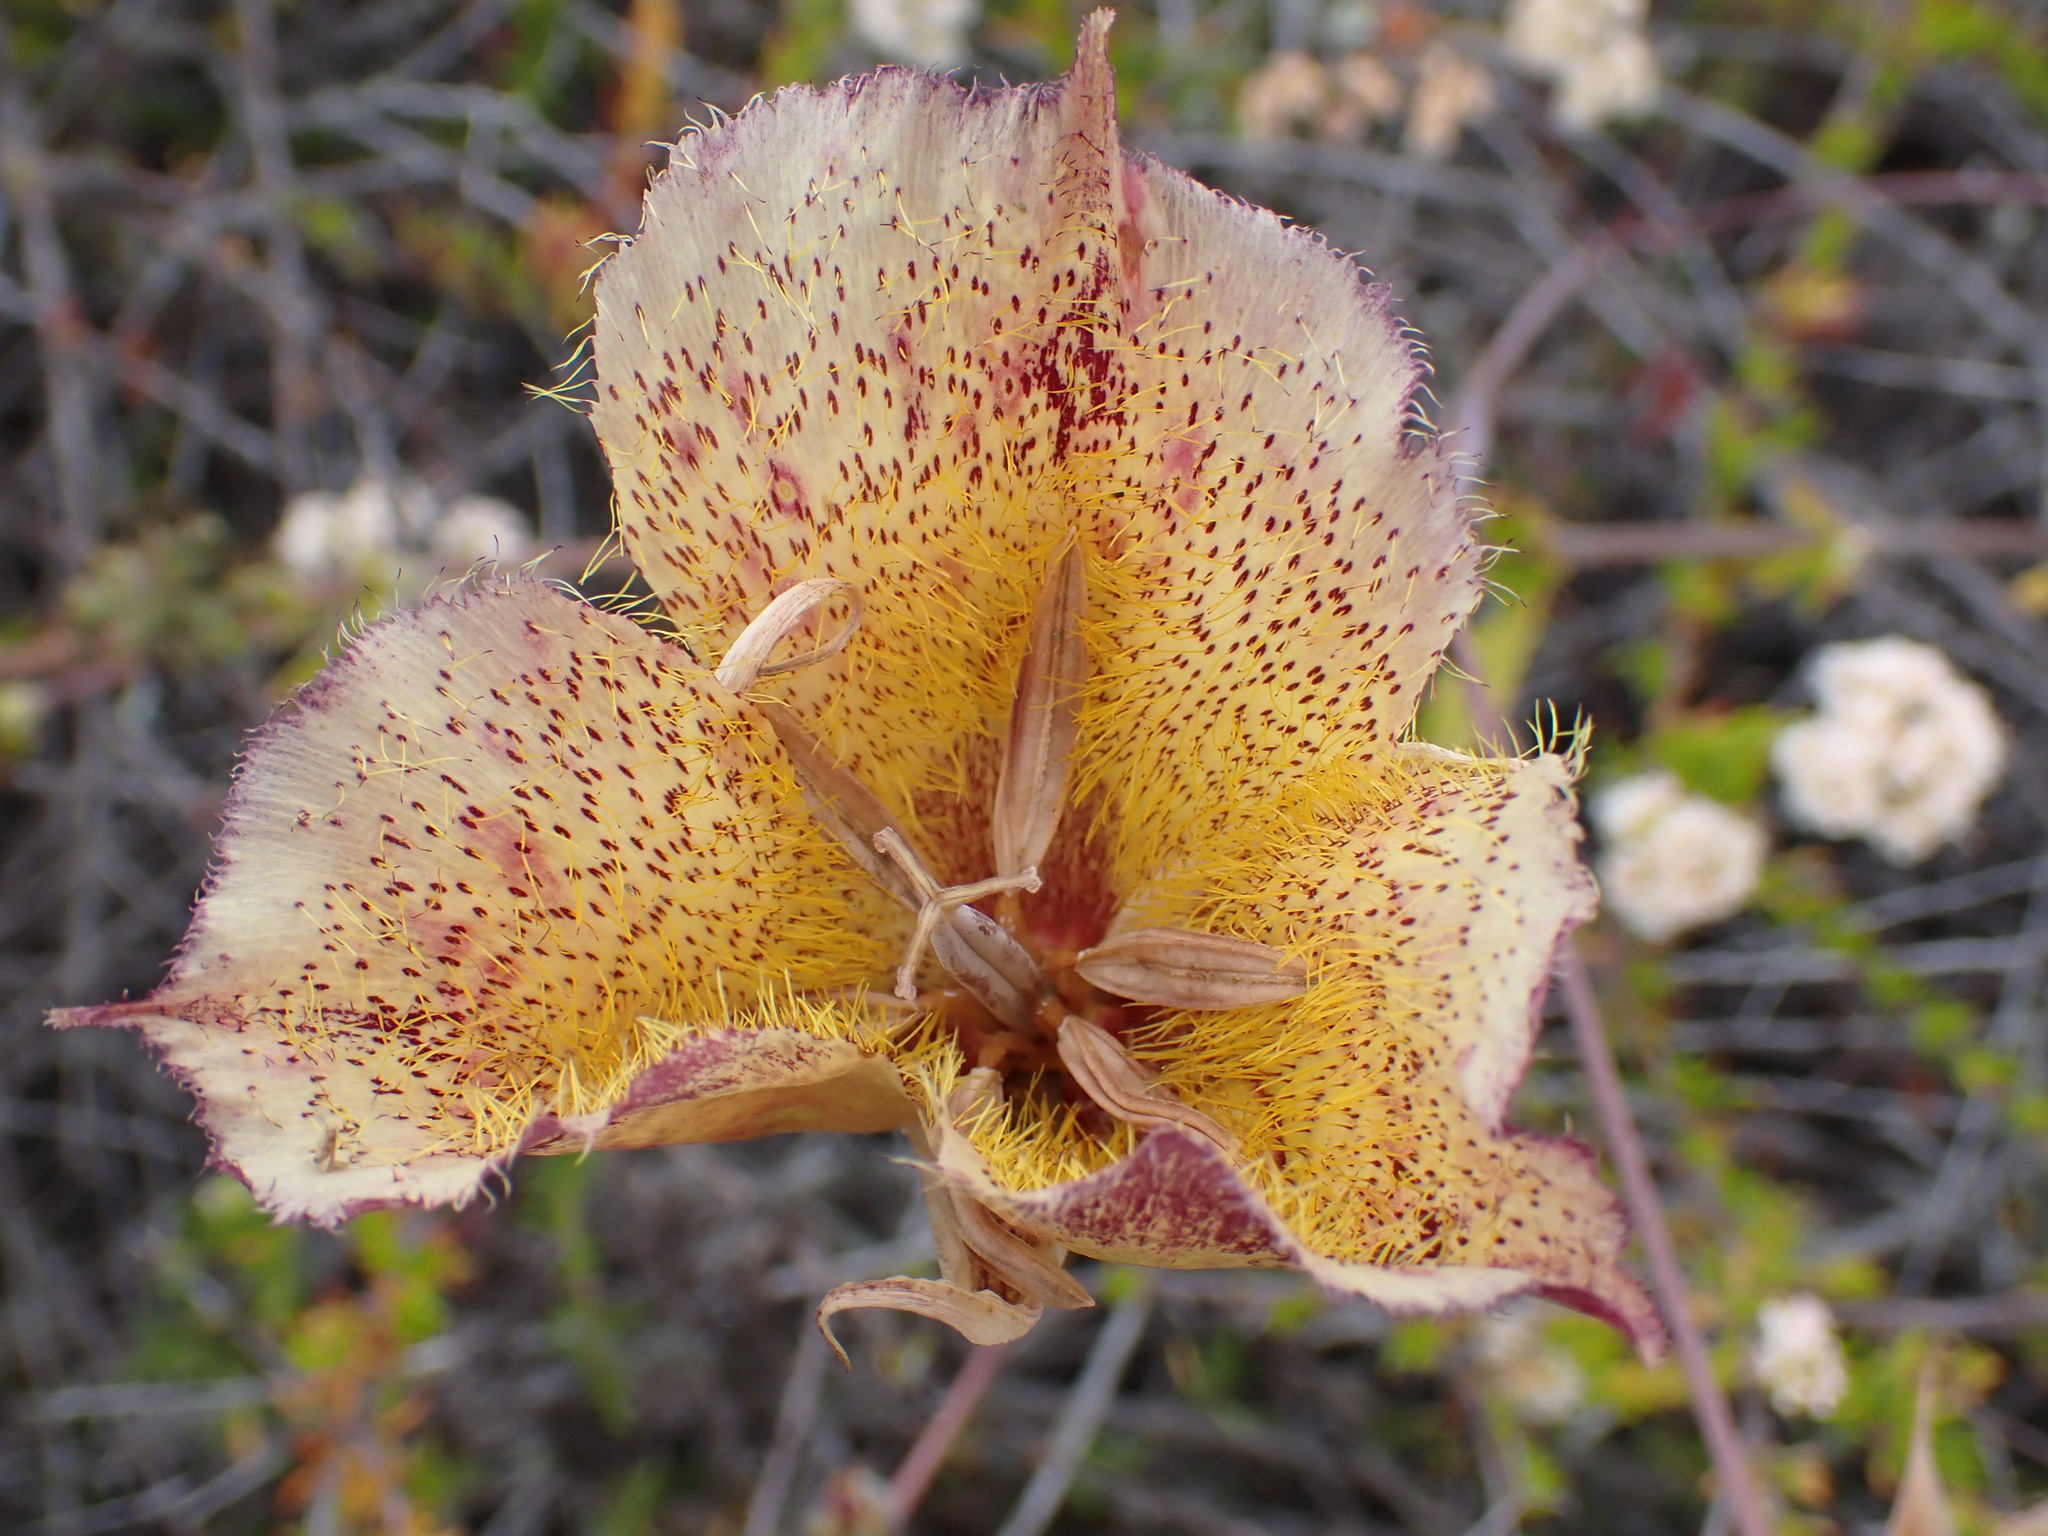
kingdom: Plantae
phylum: Tracheophyta
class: Liliopsida
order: Liliales
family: Liliaceae
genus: Calochortus
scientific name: Calochortus weedii
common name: Weed's mariposa-lily
